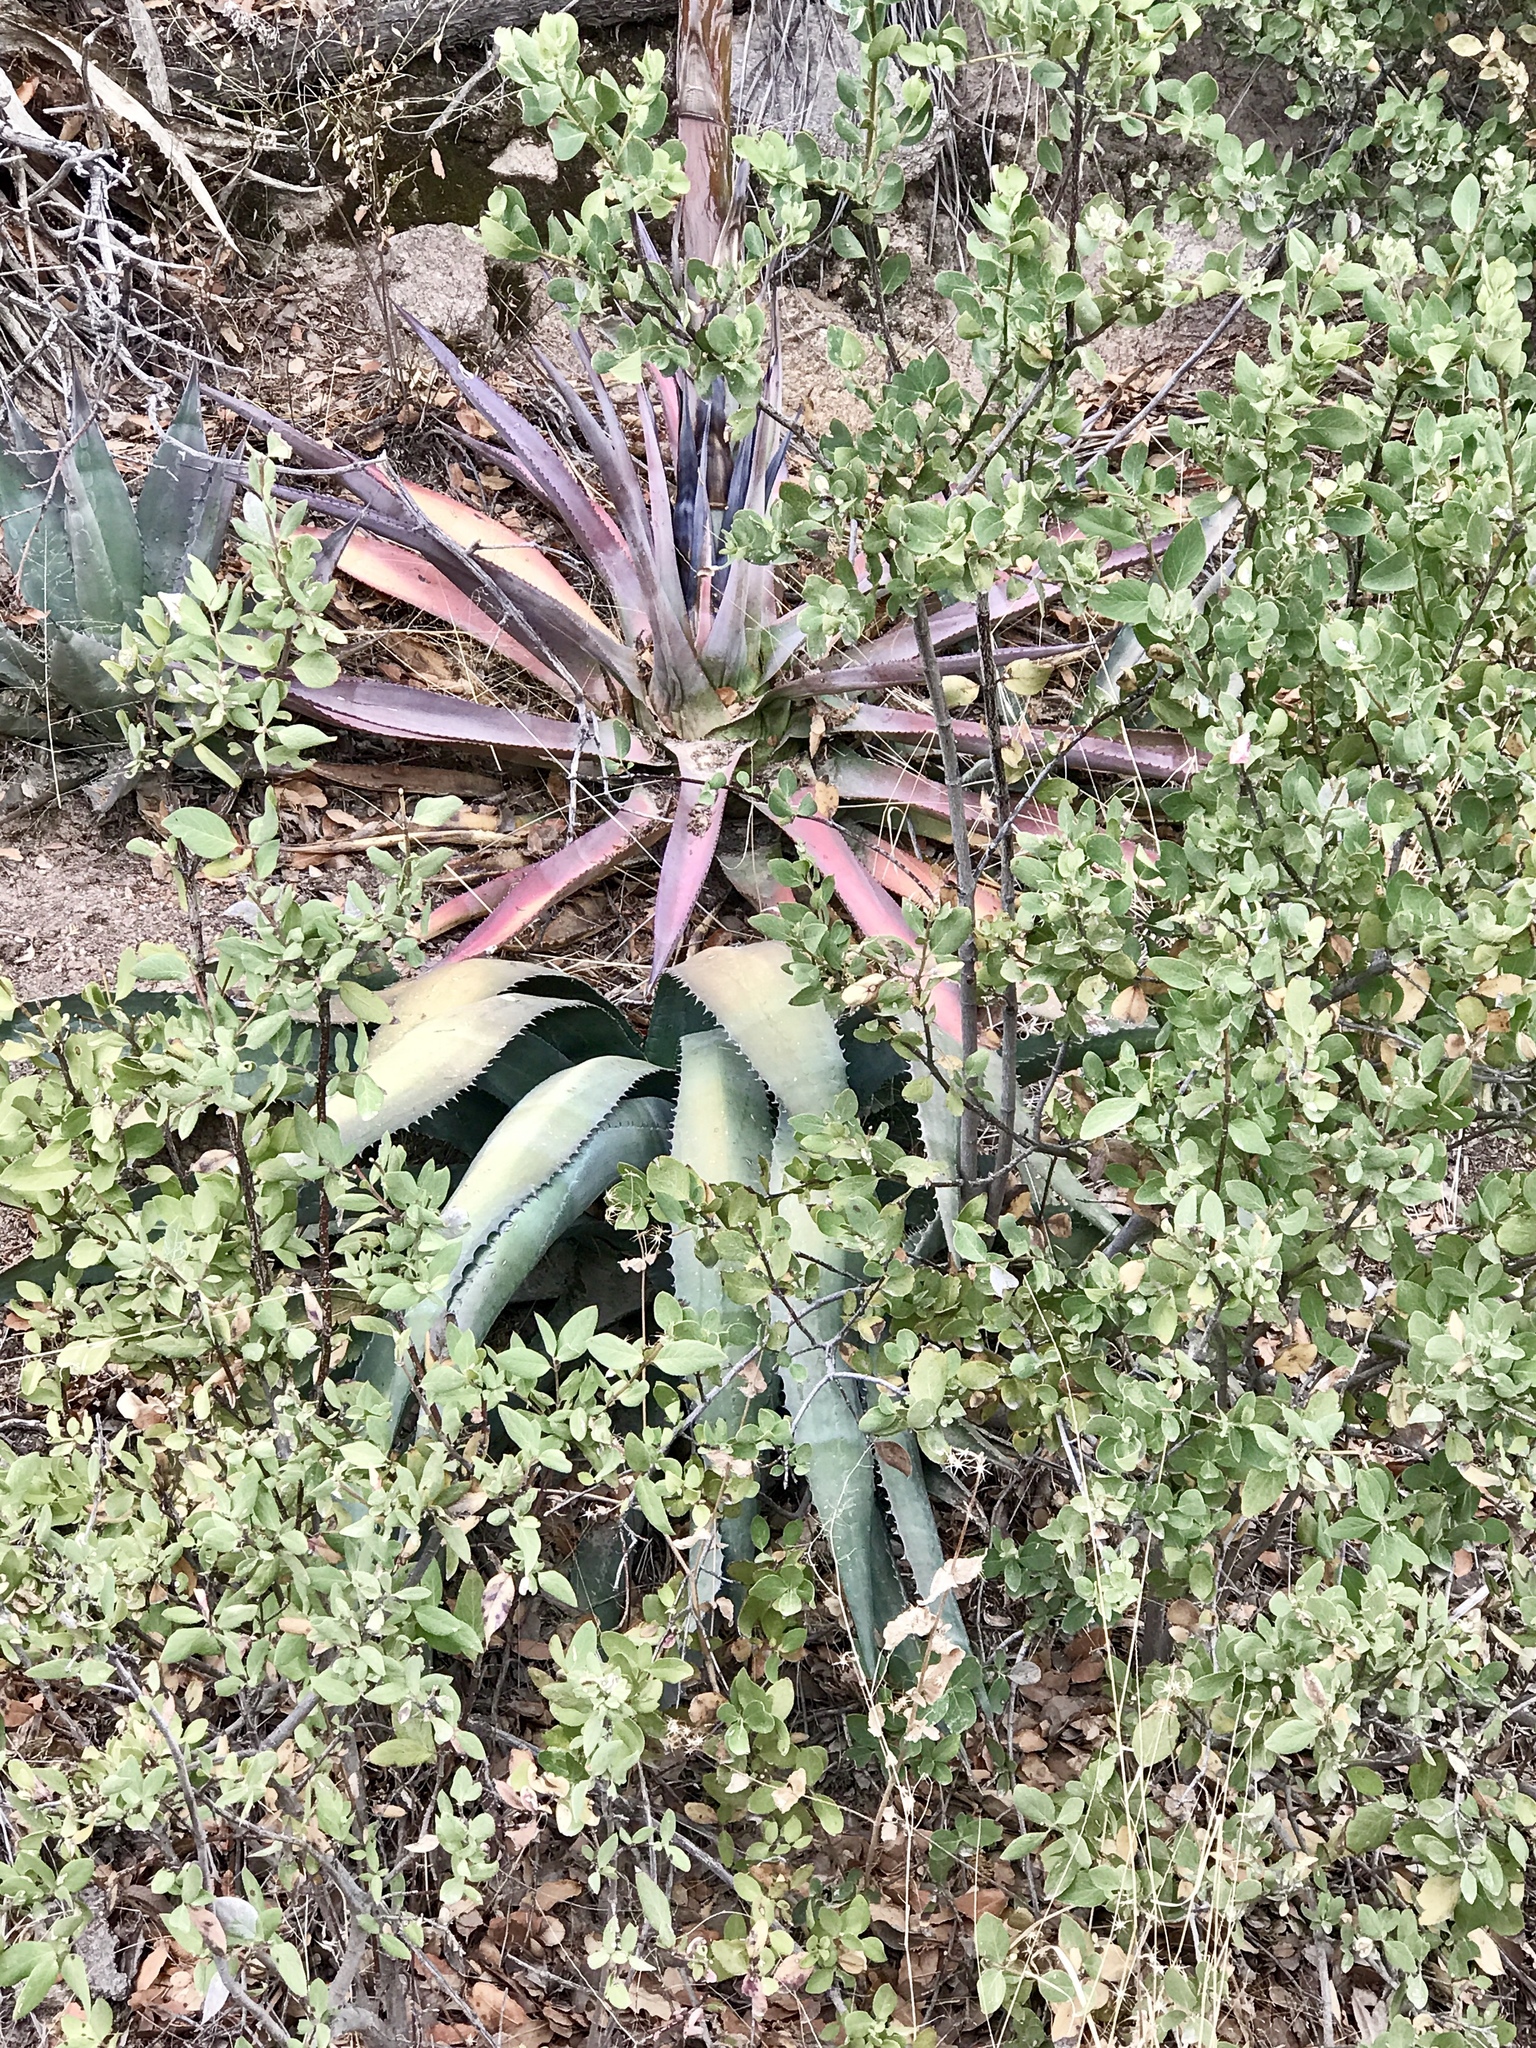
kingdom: Plantae
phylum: Tracheophyta
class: Liliopsida
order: Asparagales
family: Asparagaceae
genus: Agave
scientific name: Agave palmeri
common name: Palmer agave
